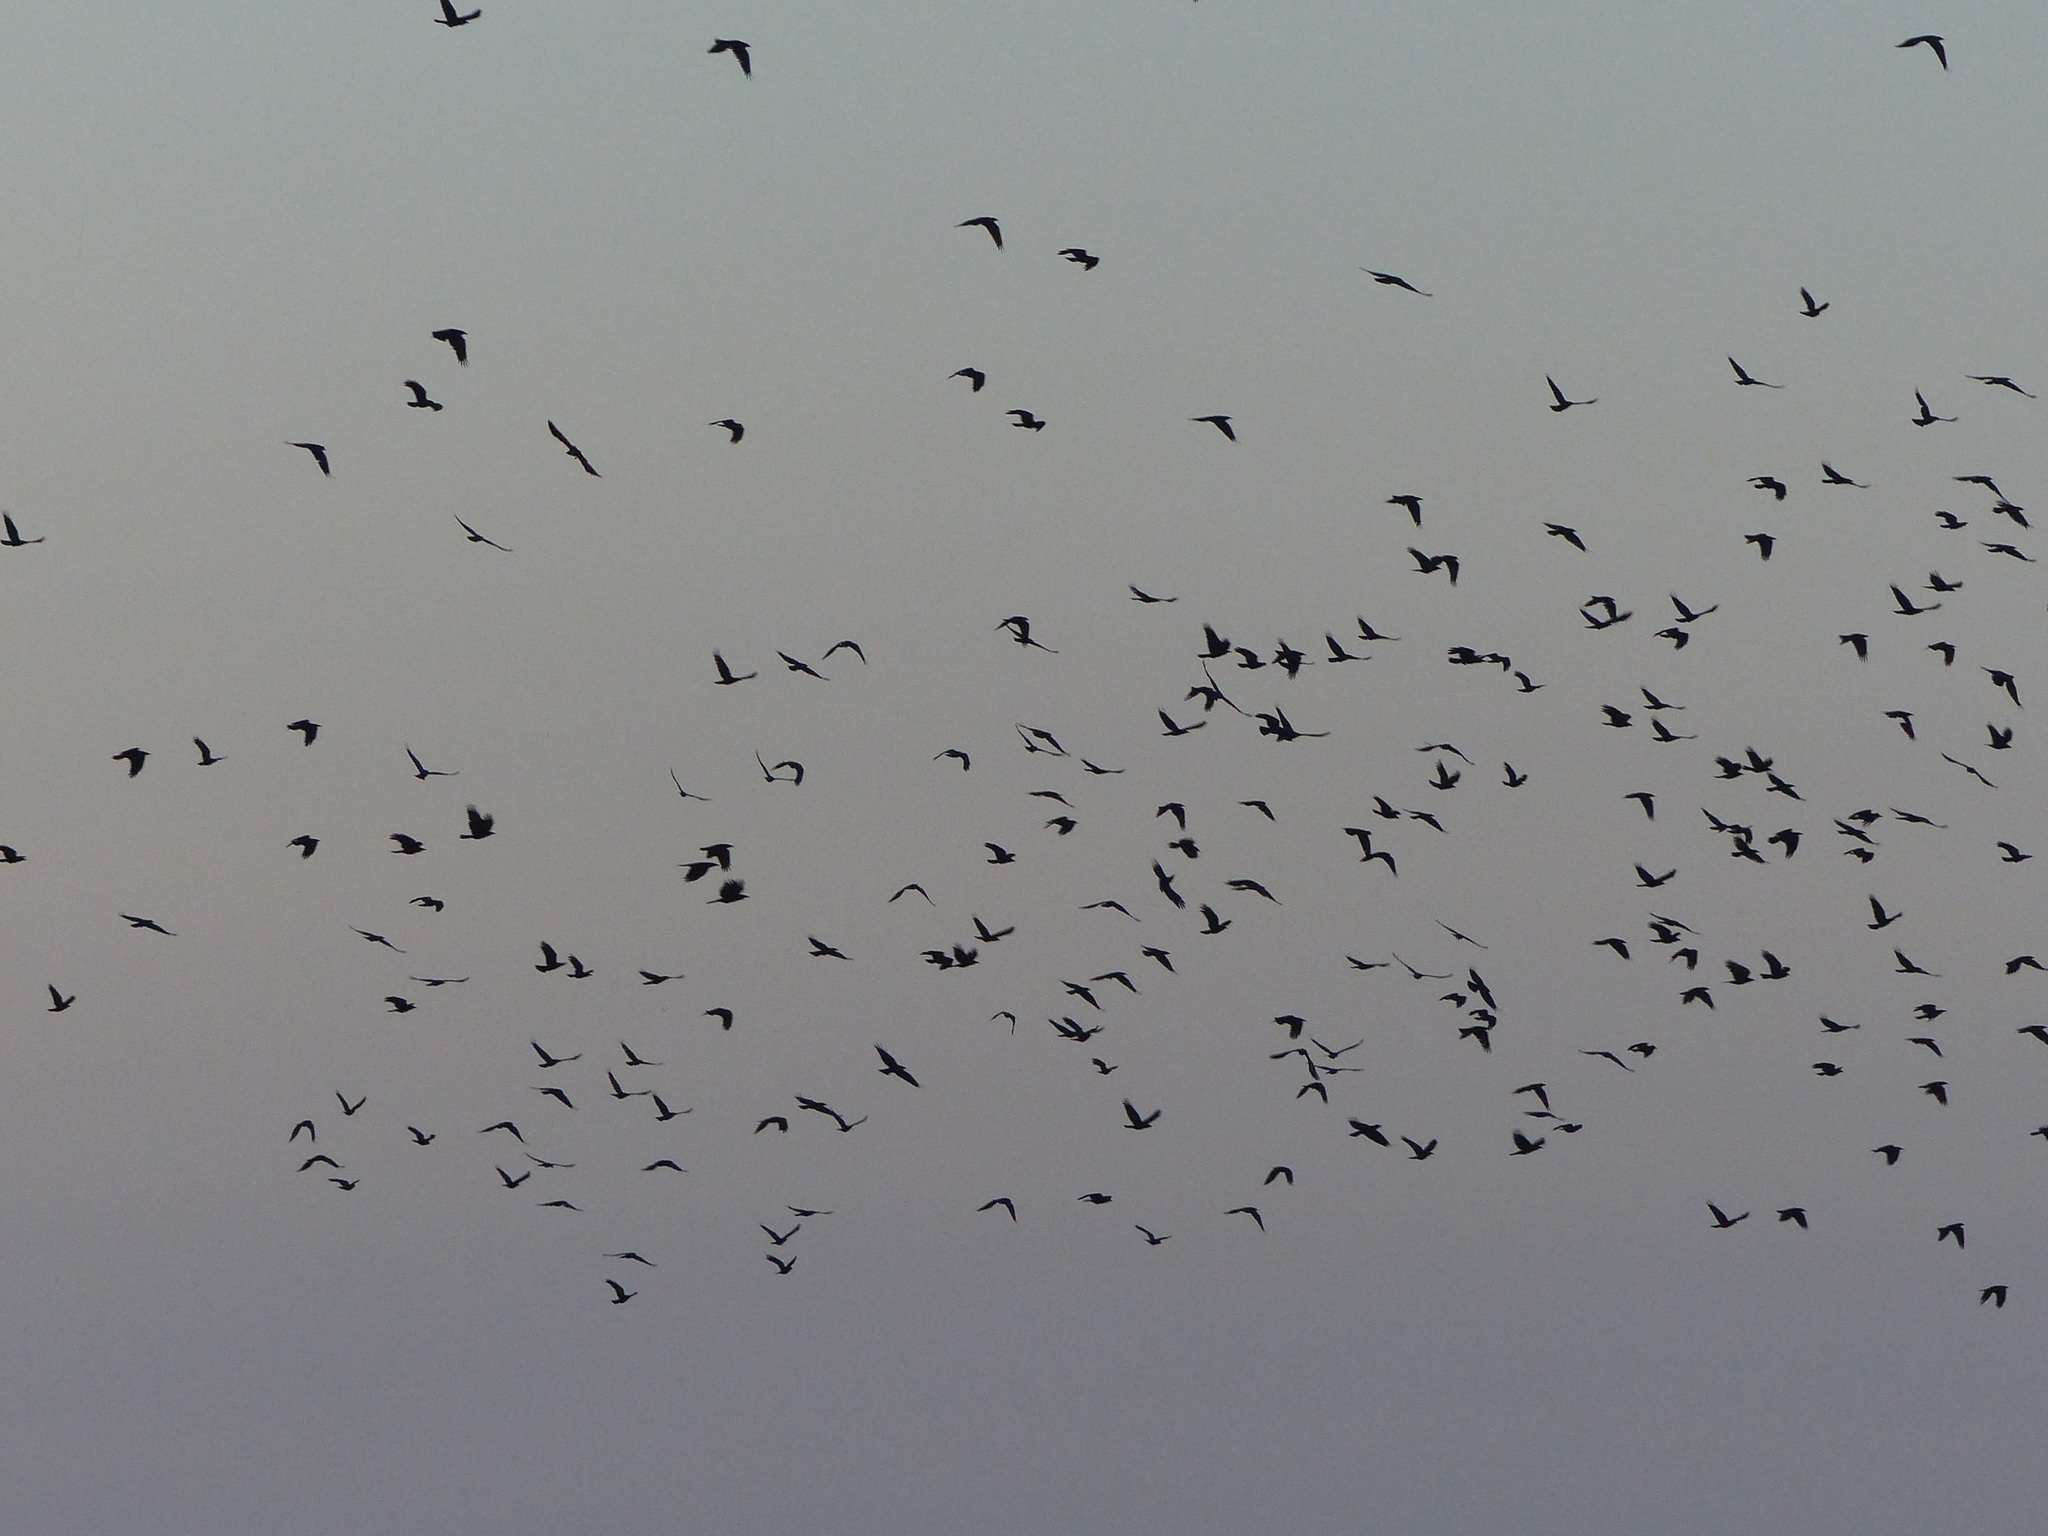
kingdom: Animalia
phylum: Chordata
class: Aves
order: Passeriformes
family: Corvidae
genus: Corvus
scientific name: Corvus ossifragus
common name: Fish crow
